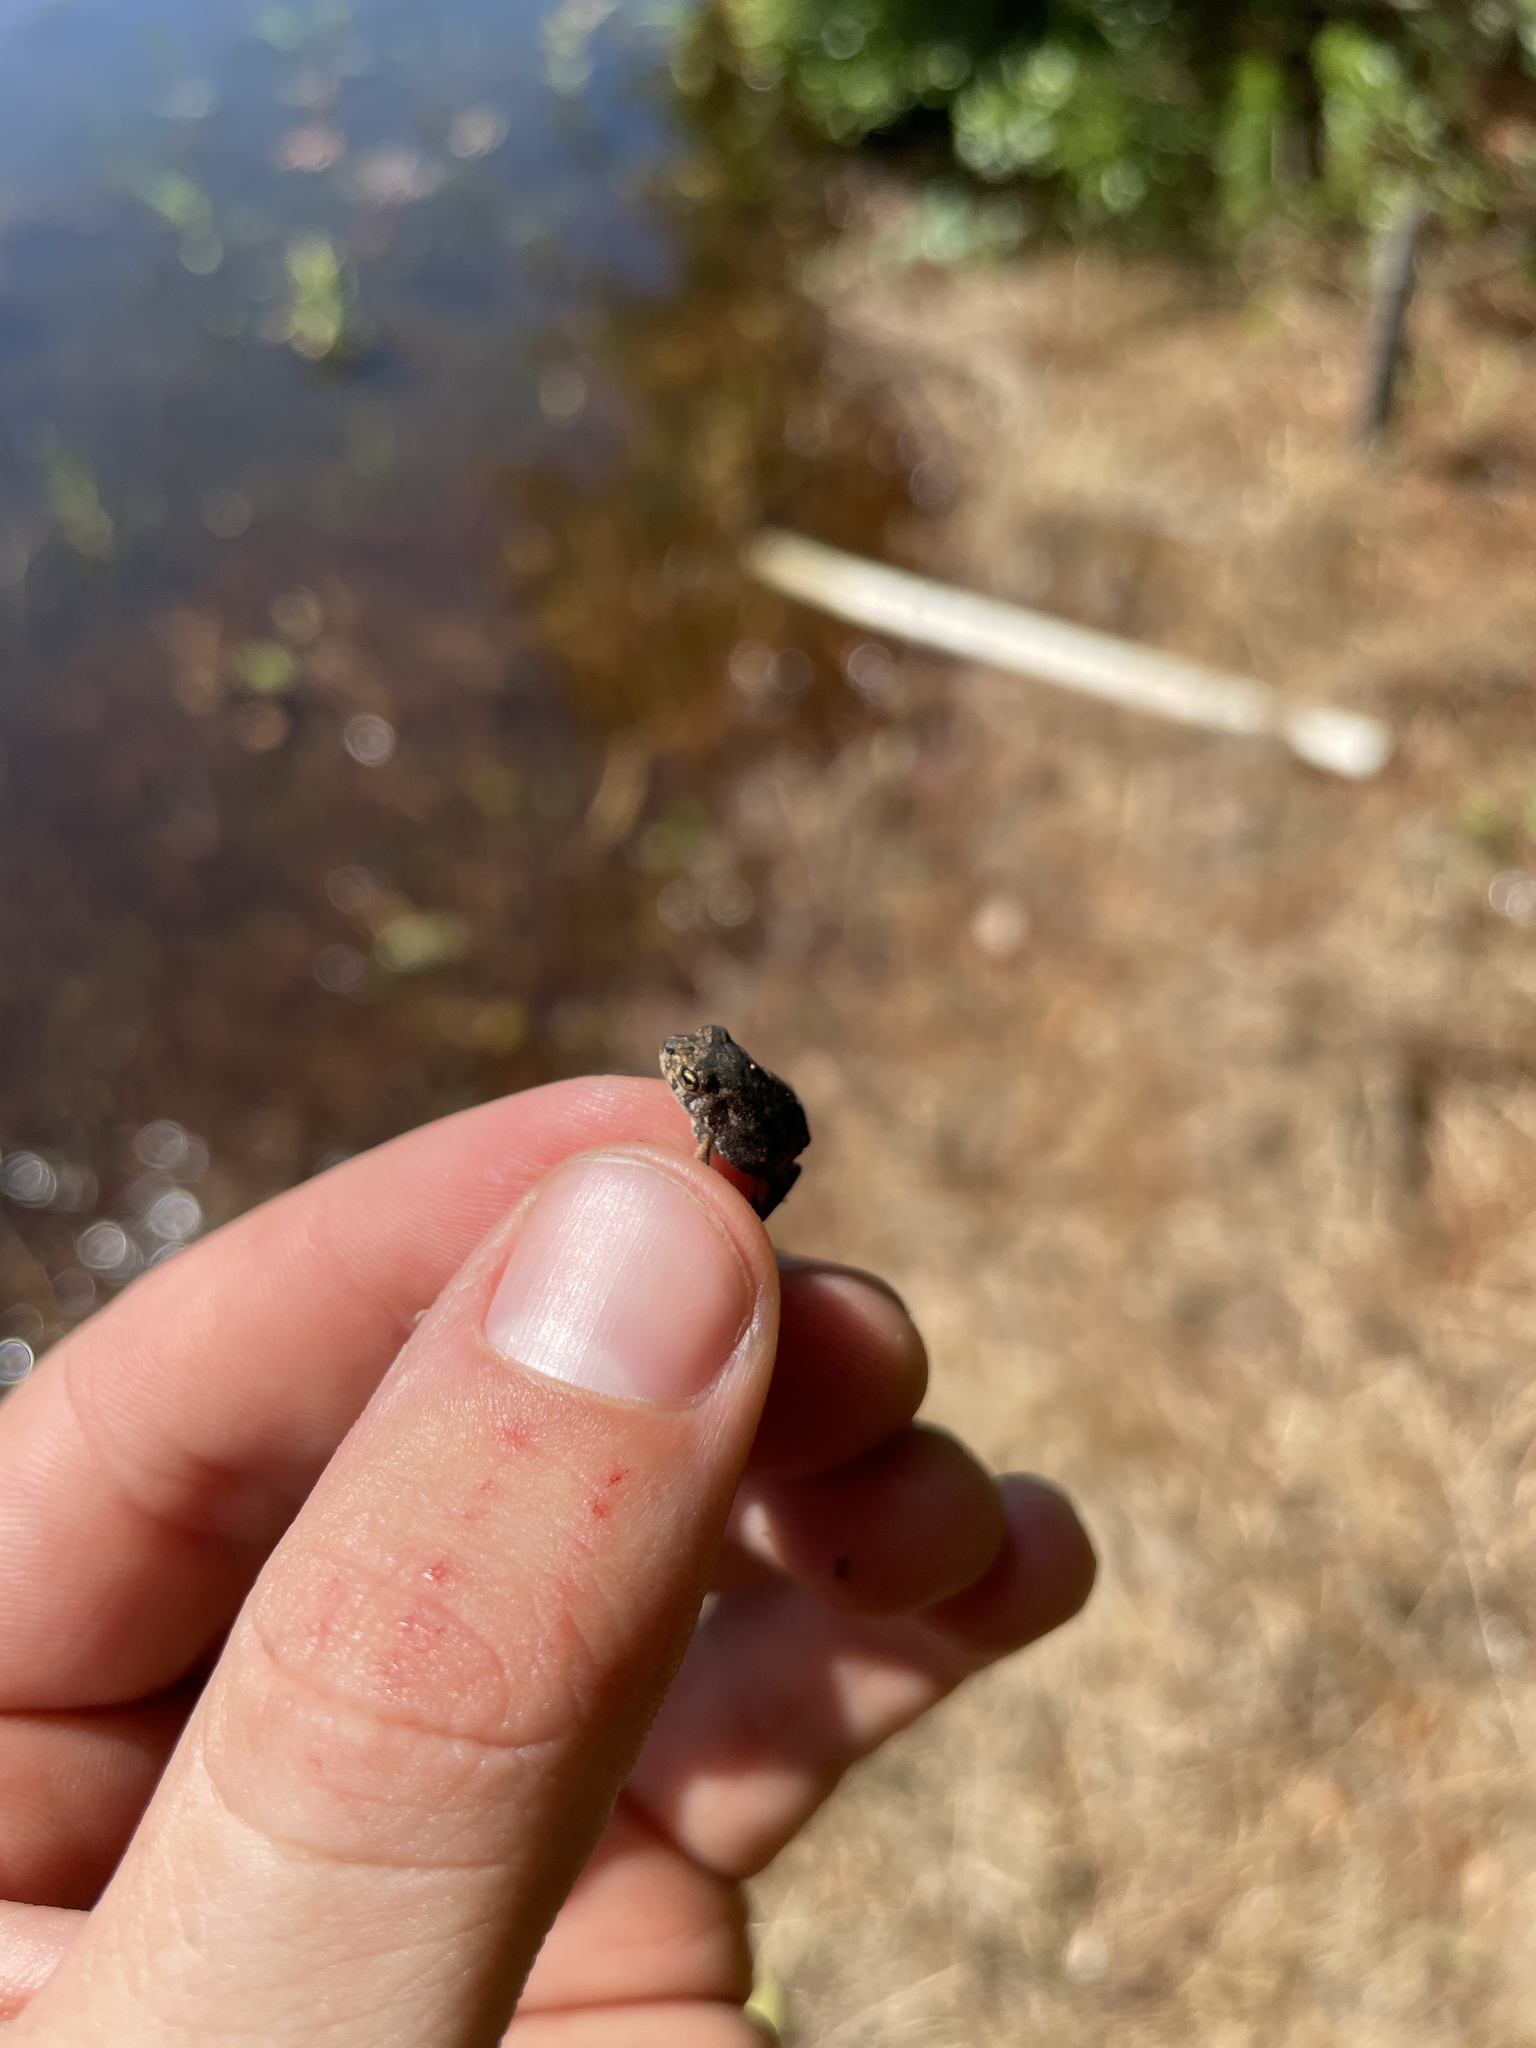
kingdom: Animalia
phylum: Chordata
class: Amphibia
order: Anura
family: Bufonidae
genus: Anaxyrus
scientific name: Anaxyrus terrestris
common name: Southern toad
